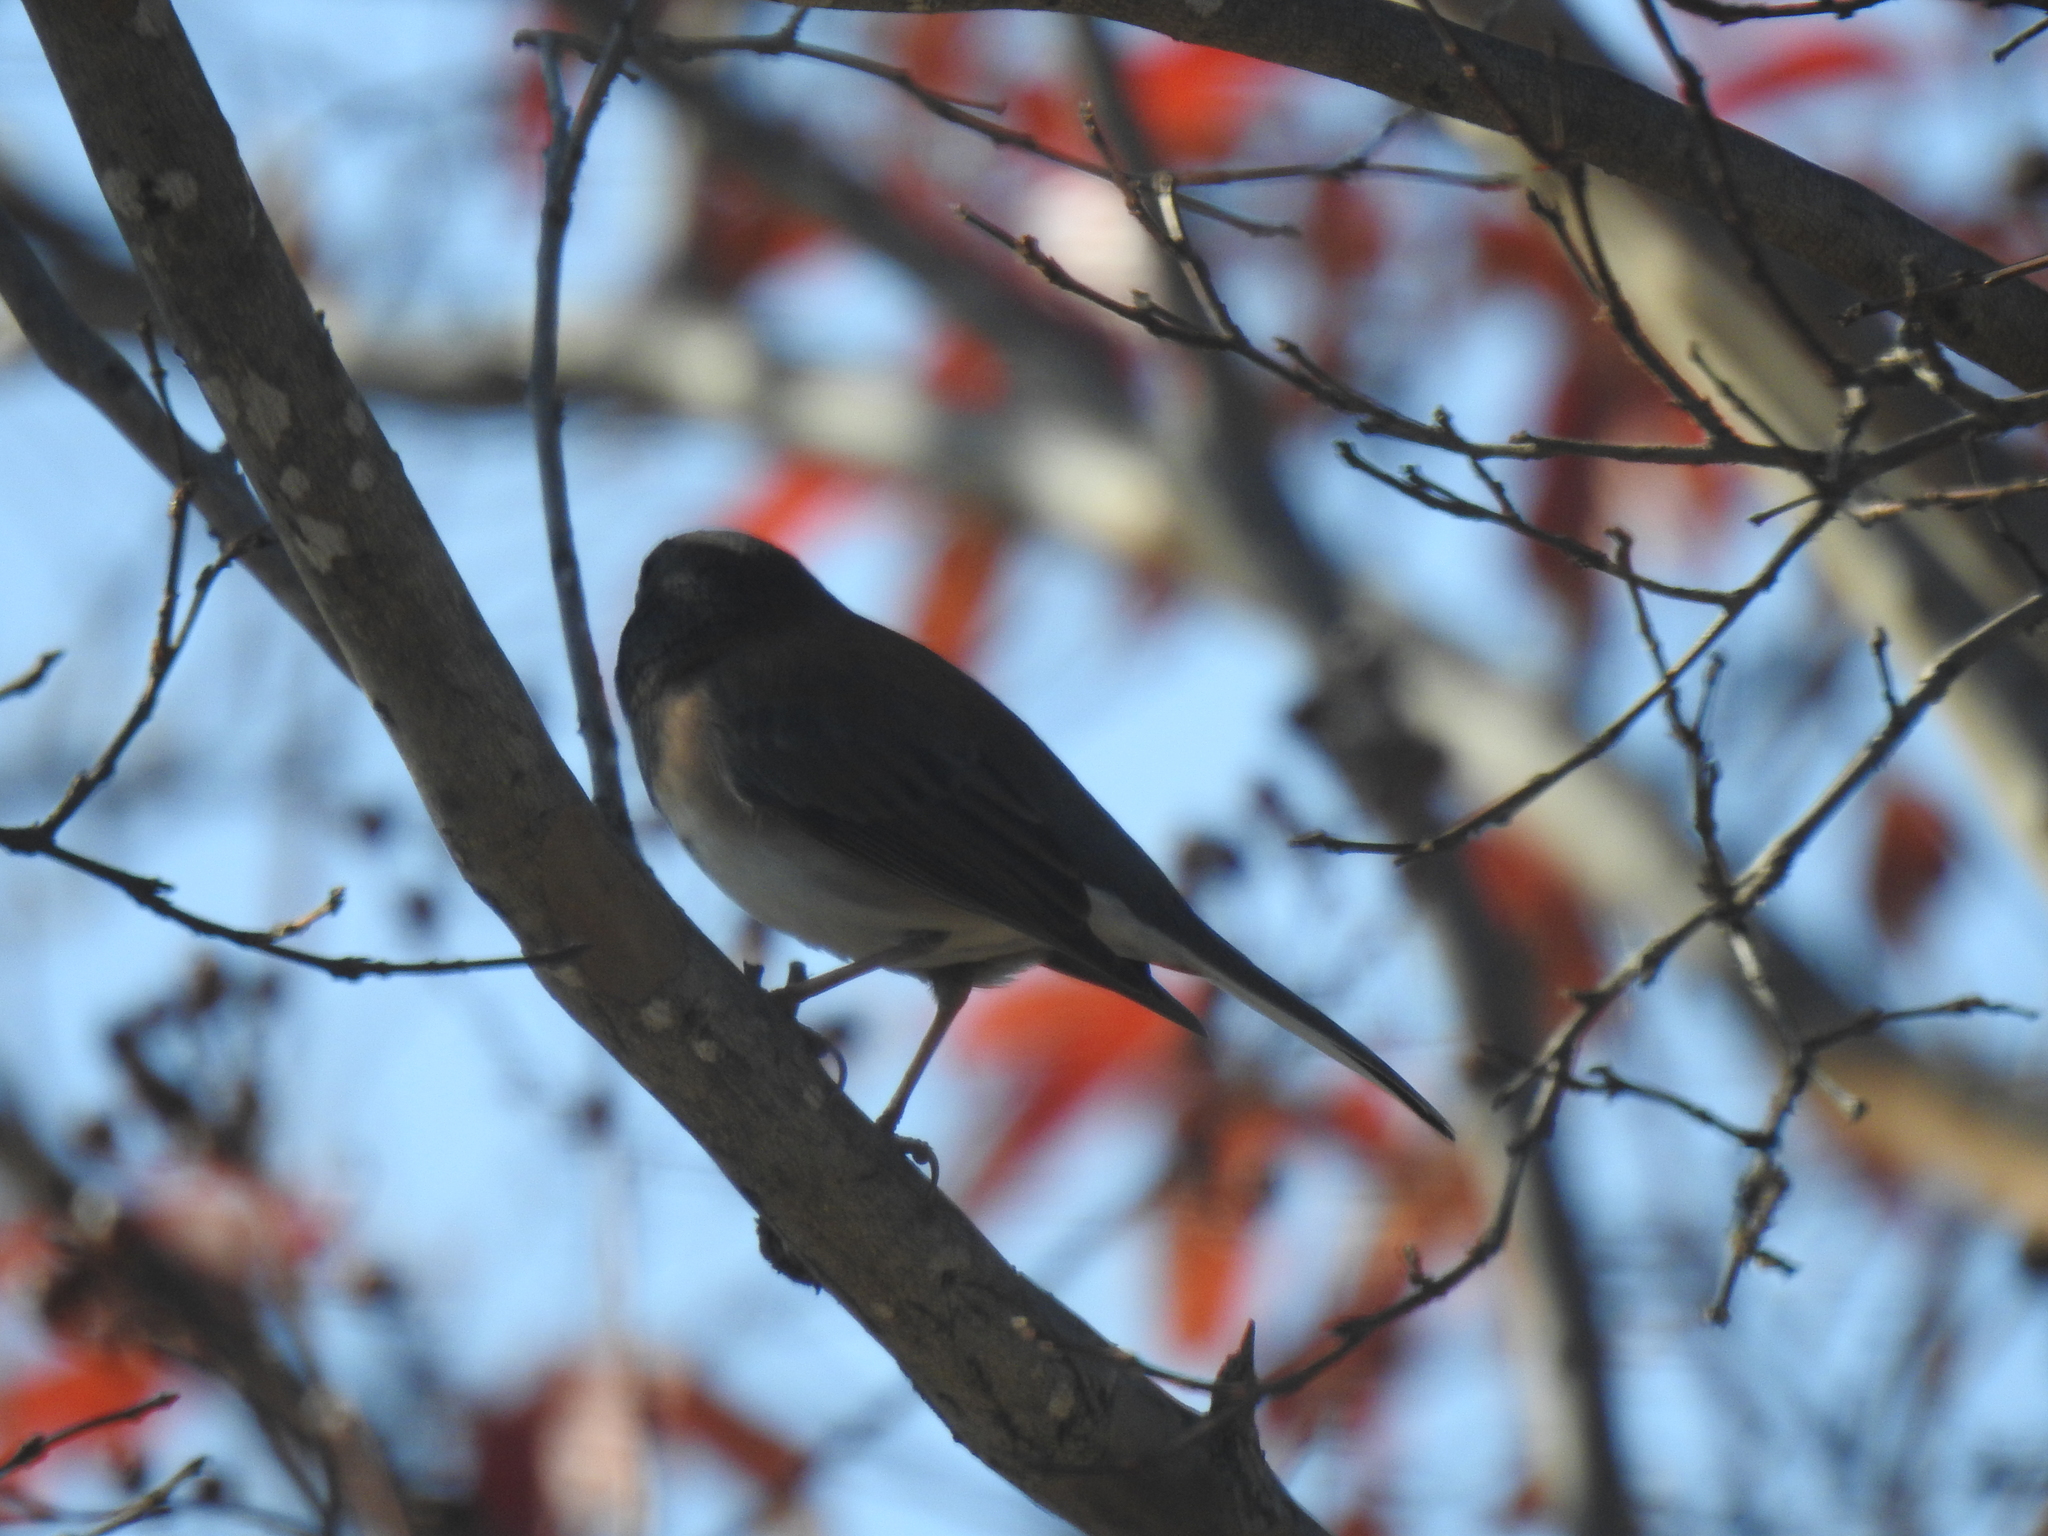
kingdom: Animalia
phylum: Chordata
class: Aves
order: Passeriformes
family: Passerellidae
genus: Junco
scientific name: Junco hyemalis
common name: Dark-eyed junco
